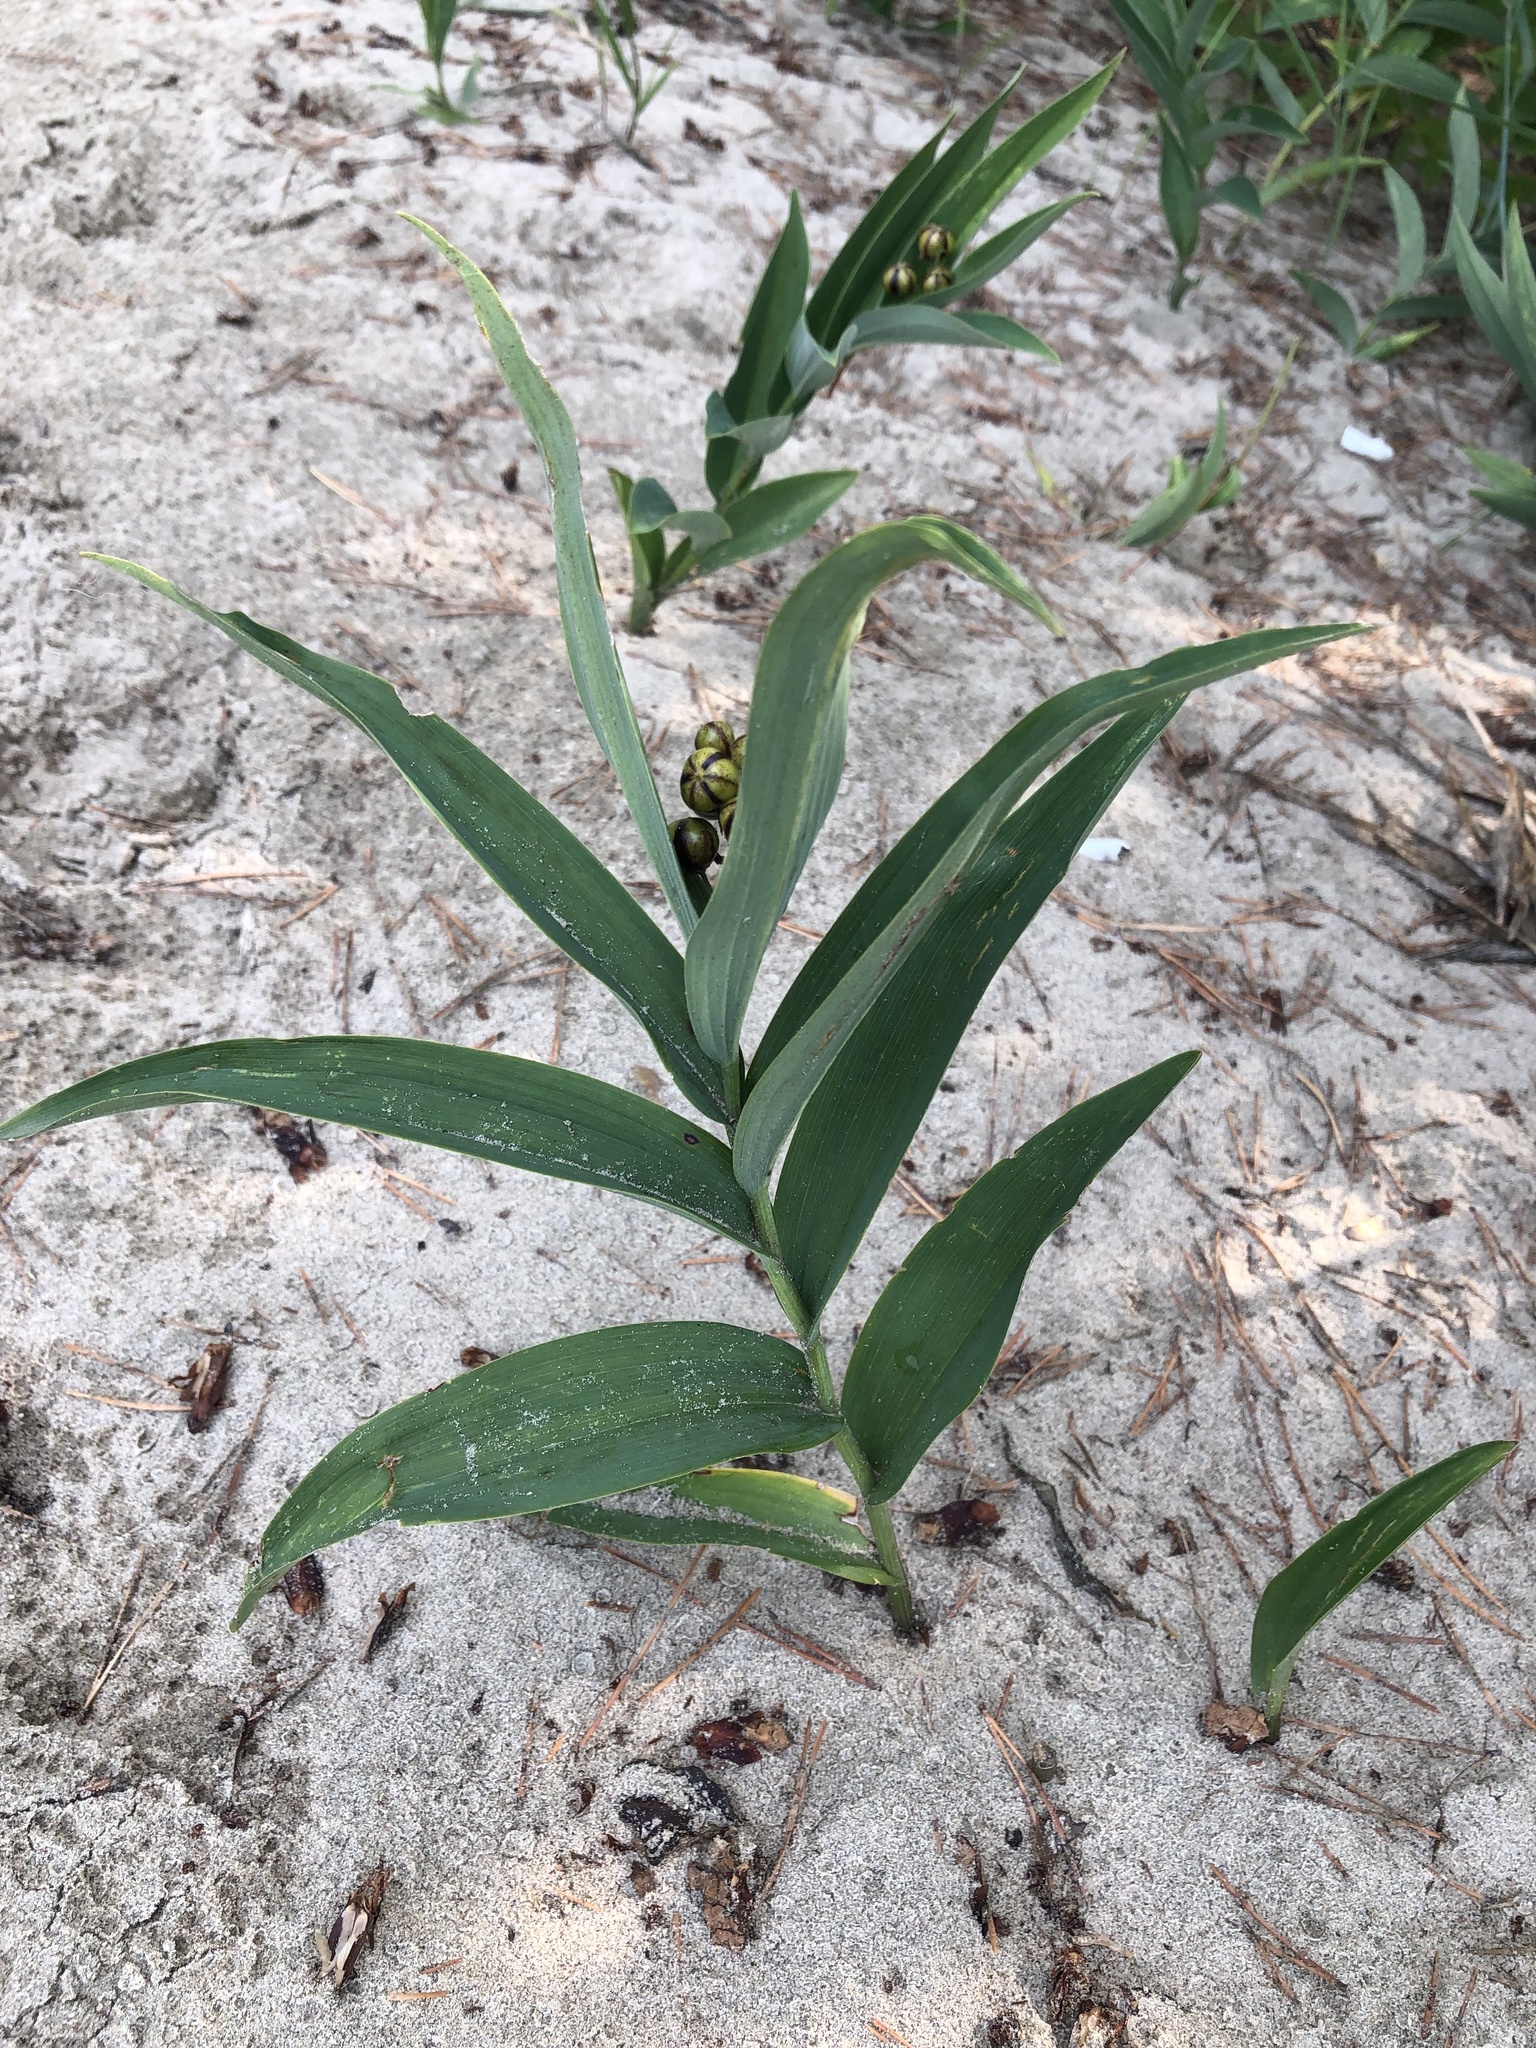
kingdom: Plantae
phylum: Tracheophyta
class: Liliopsida
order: Asparagales
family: Asparagaceae
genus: Maianthemum
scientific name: Maianthemum stellatum
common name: Little false solomon's seal
